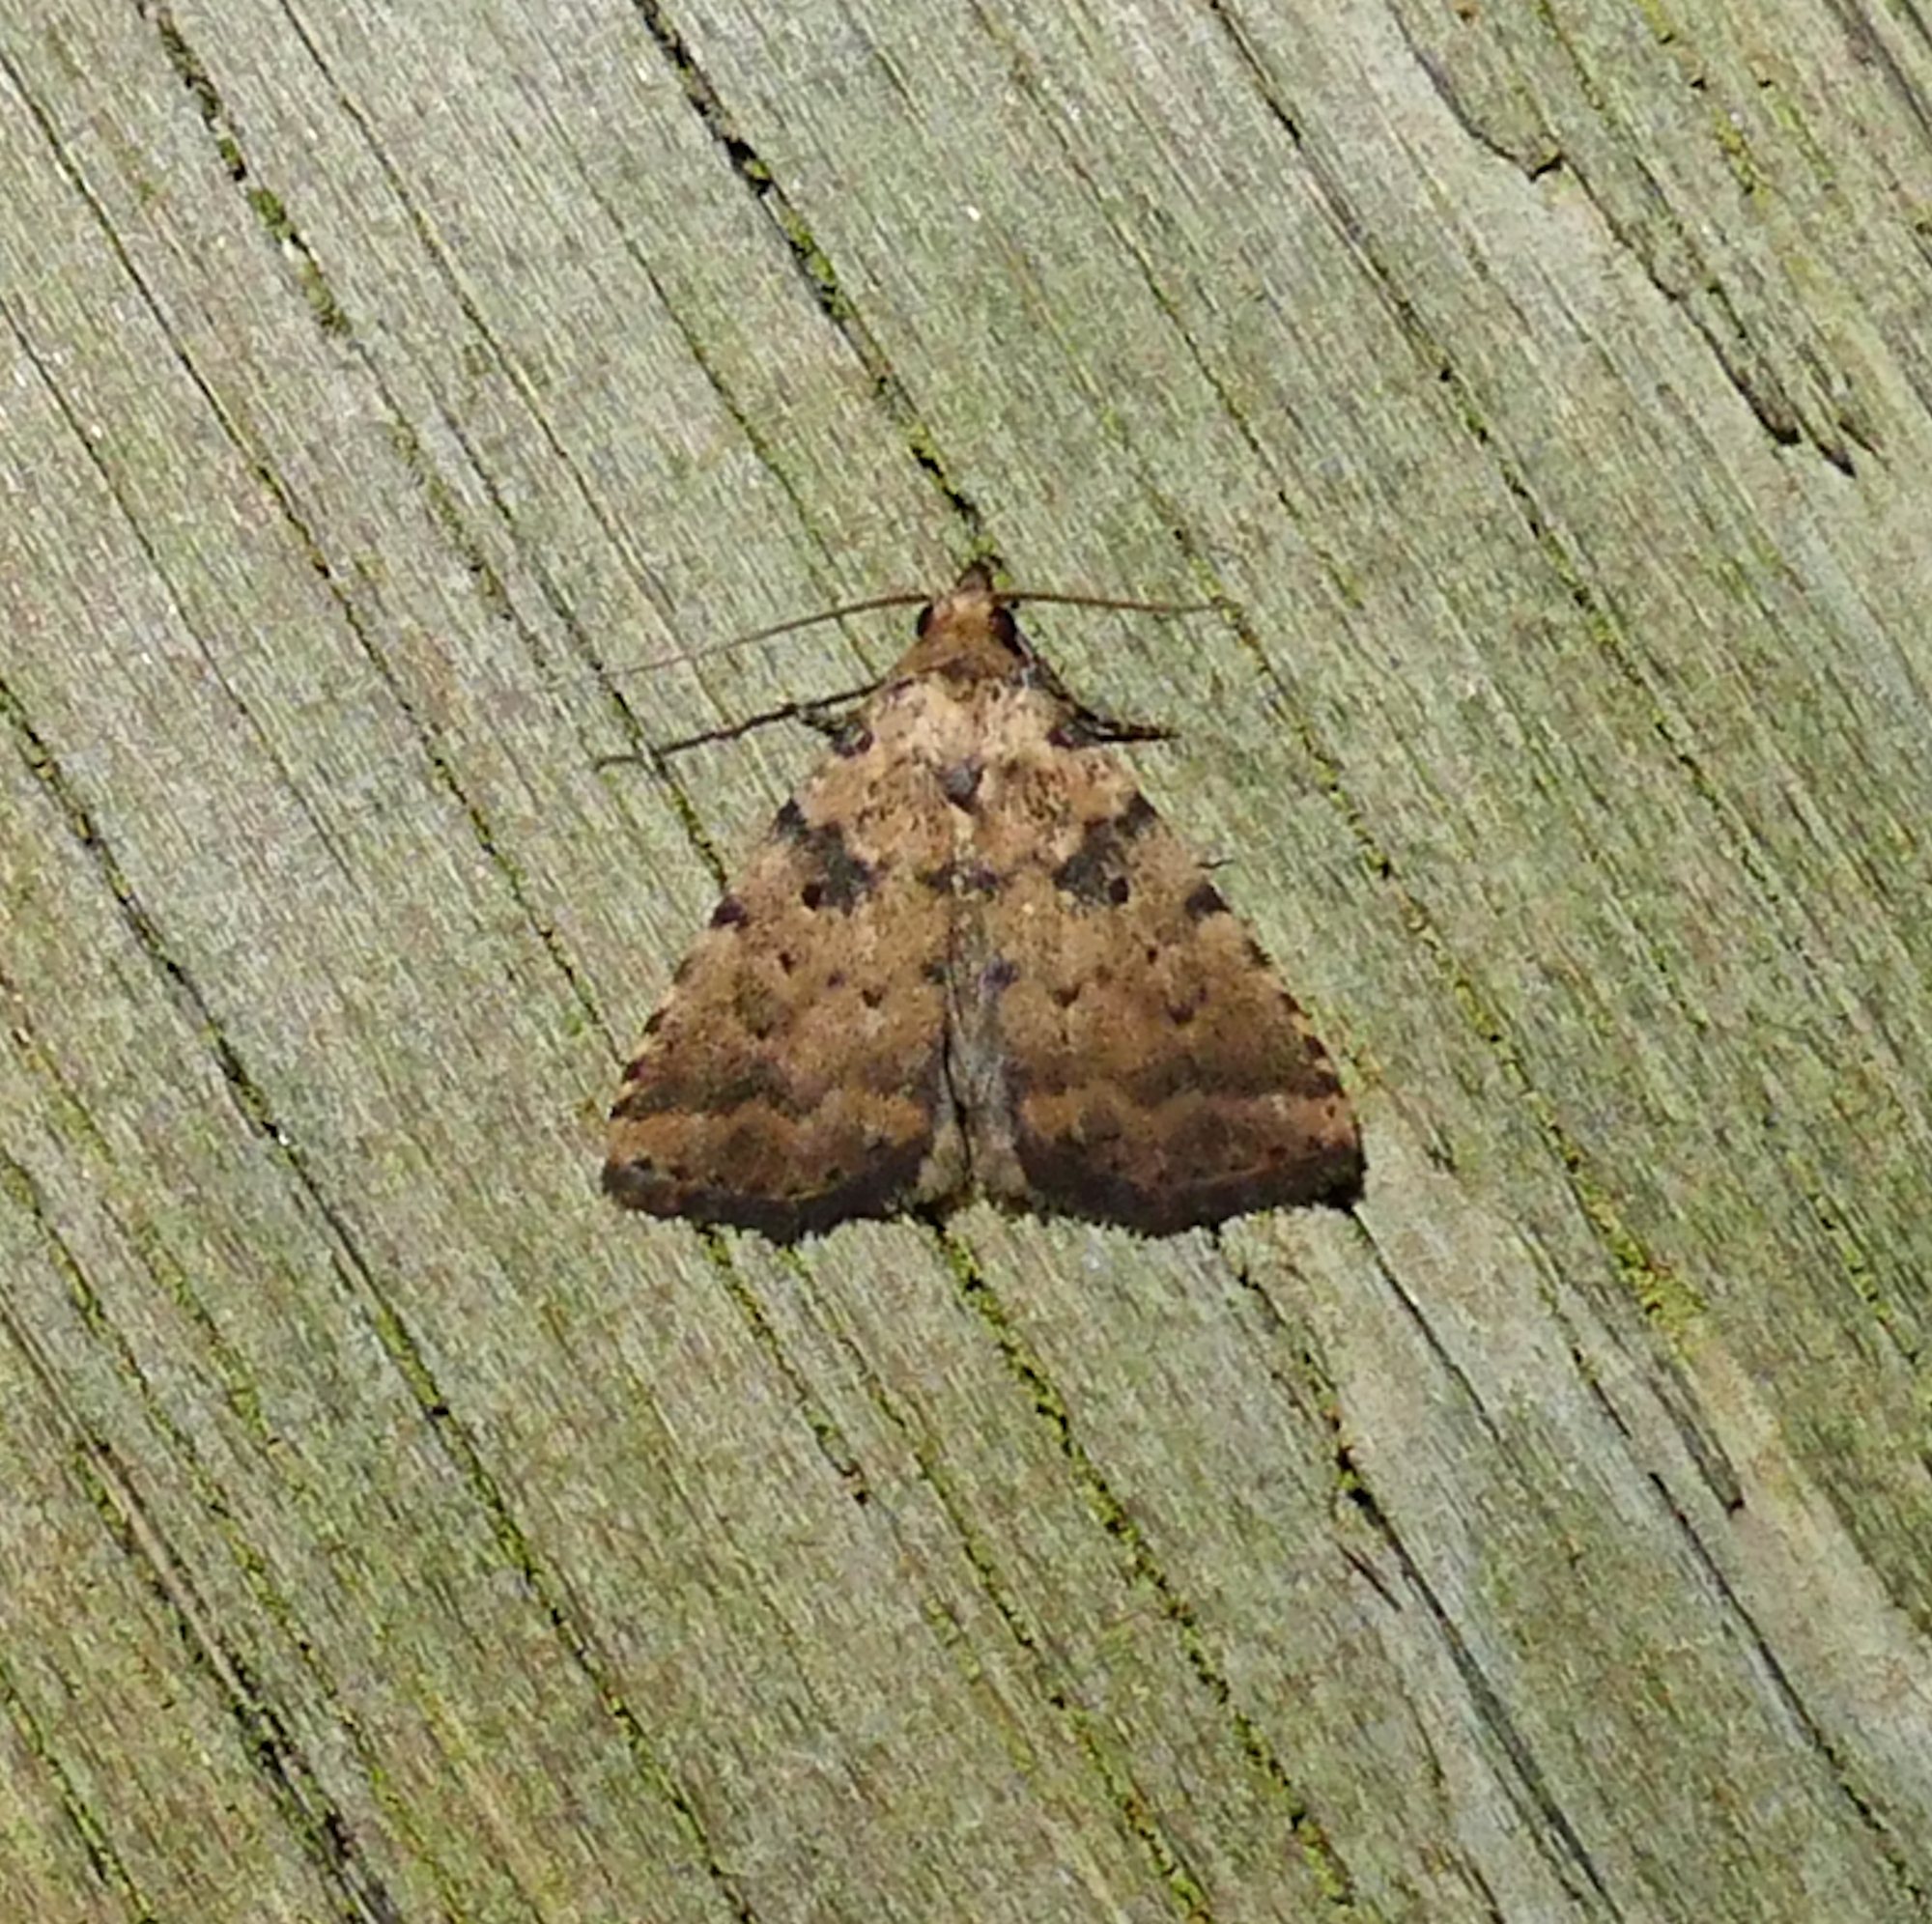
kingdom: Animalia
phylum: Arthropoda
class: Insecta
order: Lepidoptera
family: Erebidae
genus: Arugisa
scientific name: Arugisa lutea
